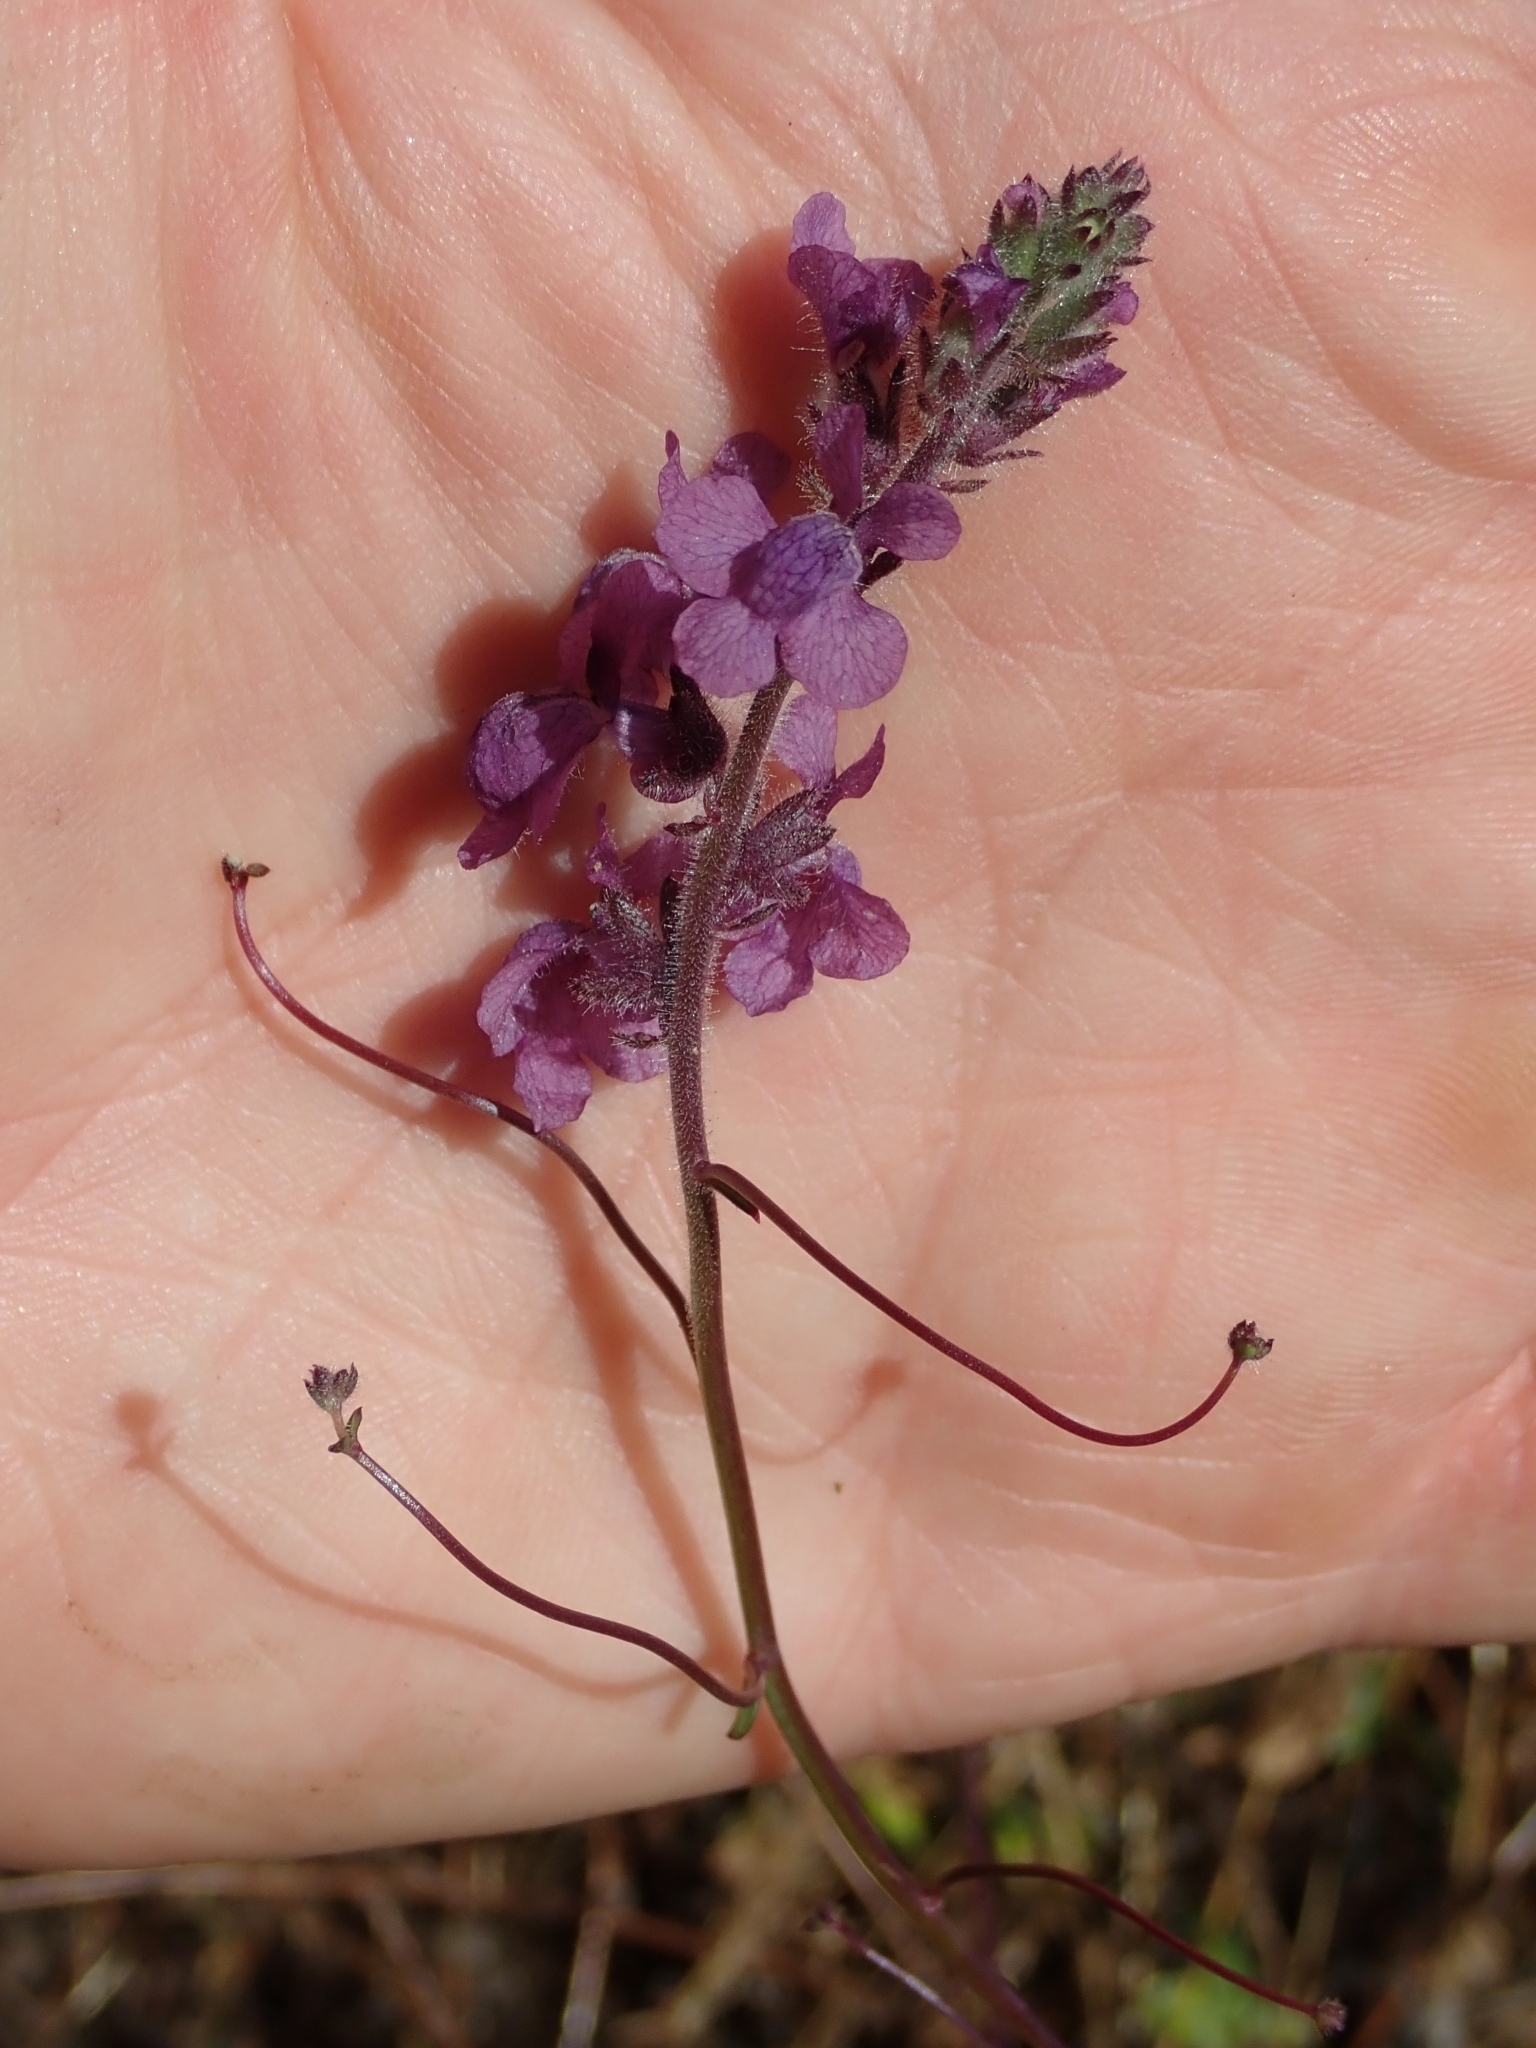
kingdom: Plantae
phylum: Tracheophyta
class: Magnoliopsida
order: Lamiales
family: Plantaginaceae
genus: Nuttallanthus
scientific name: Nuttallanthus texanus
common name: Texas toadflax
